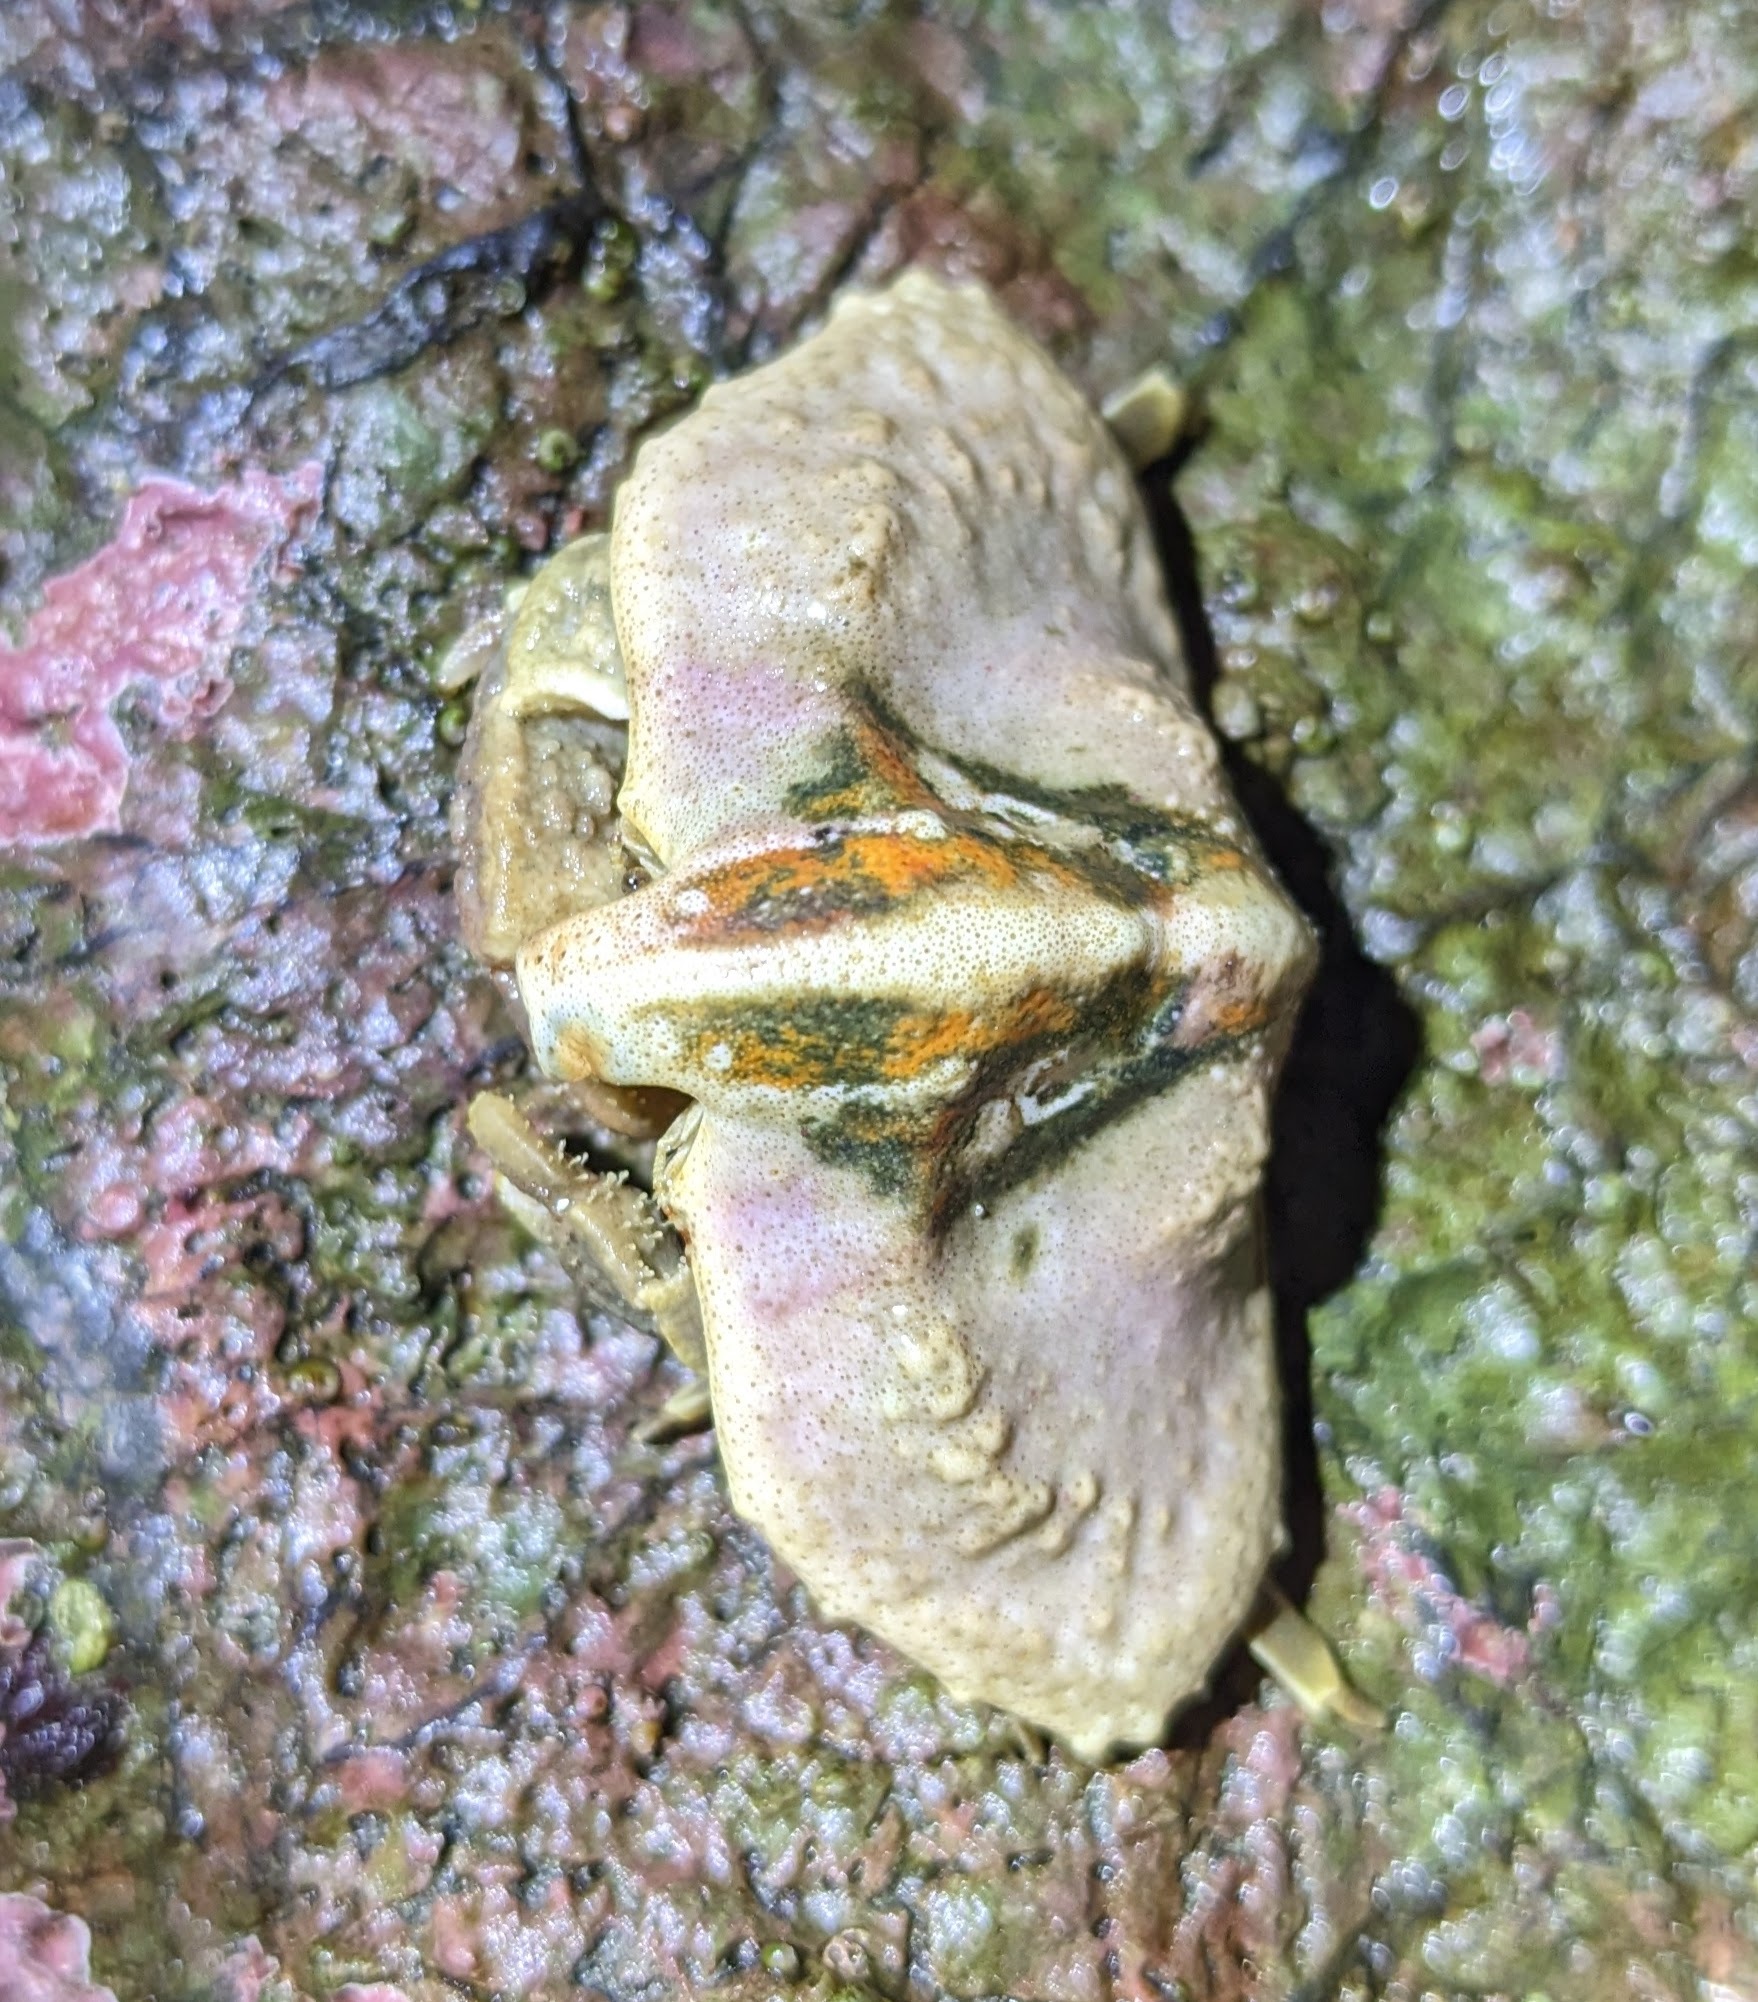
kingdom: Animalia
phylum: Arthropoda
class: Malacostraca
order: Decapoda
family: Lithodidae
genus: Cryptolithodes
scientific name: Cryptolithodes typicus
